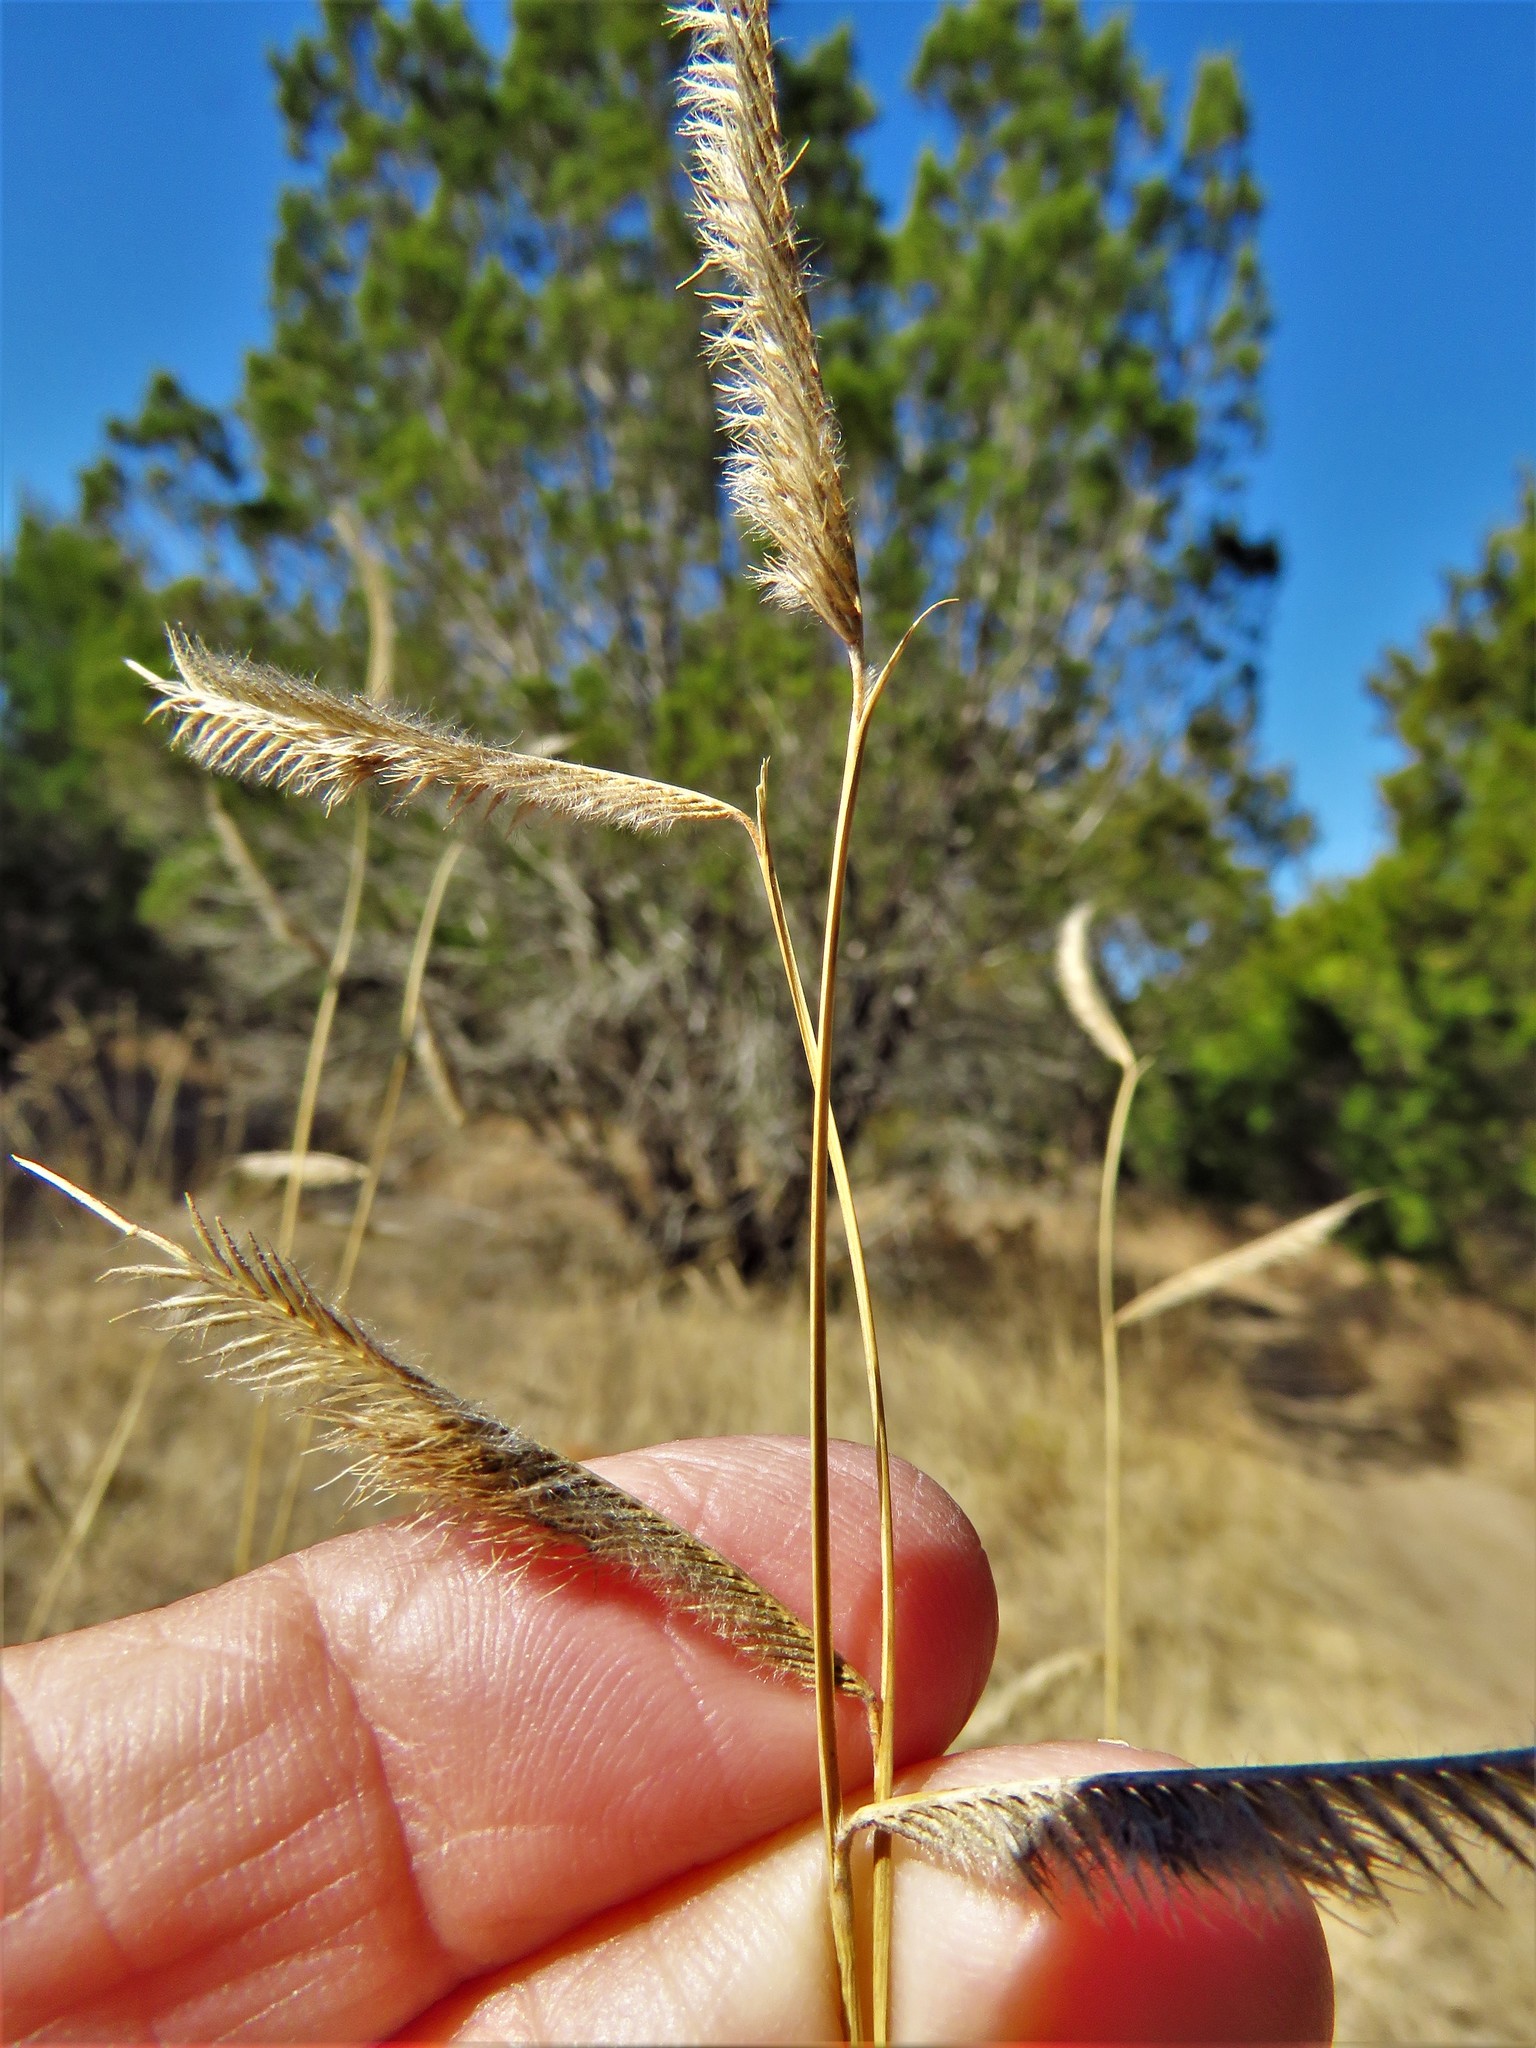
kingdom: Plantae
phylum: Tracheophyta
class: Liliopsida
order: Poales
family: Poaceae
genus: Bouteloua
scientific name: Bouteloua hirsuta
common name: Hairy grama
